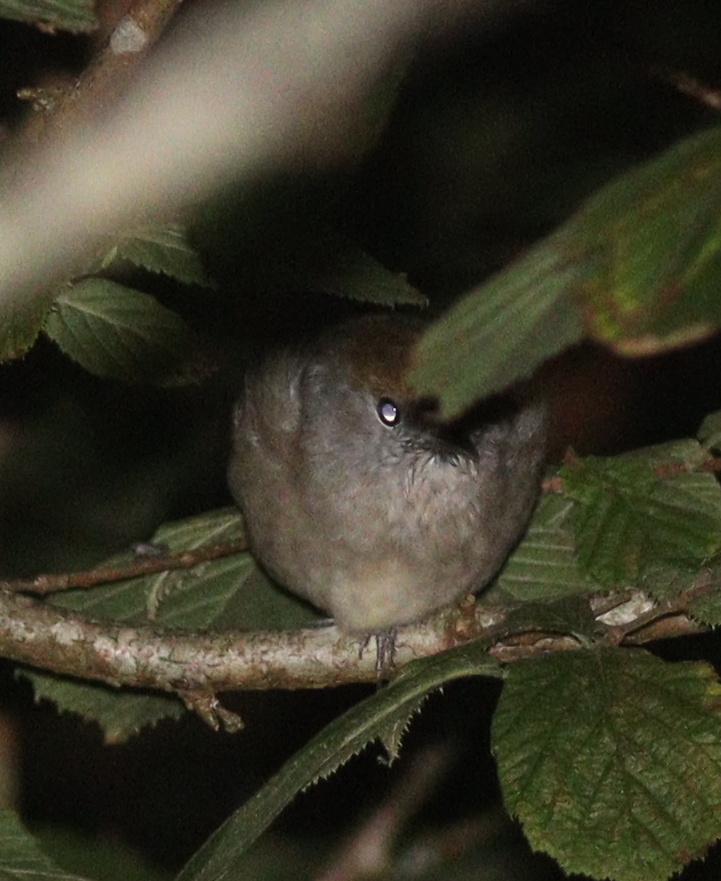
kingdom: Animalia
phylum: Chordata
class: Aves
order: Passeriformes
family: Sylviidae
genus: Sylvia
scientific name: Sylvia atricapilla
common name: Eurasian blackcap
